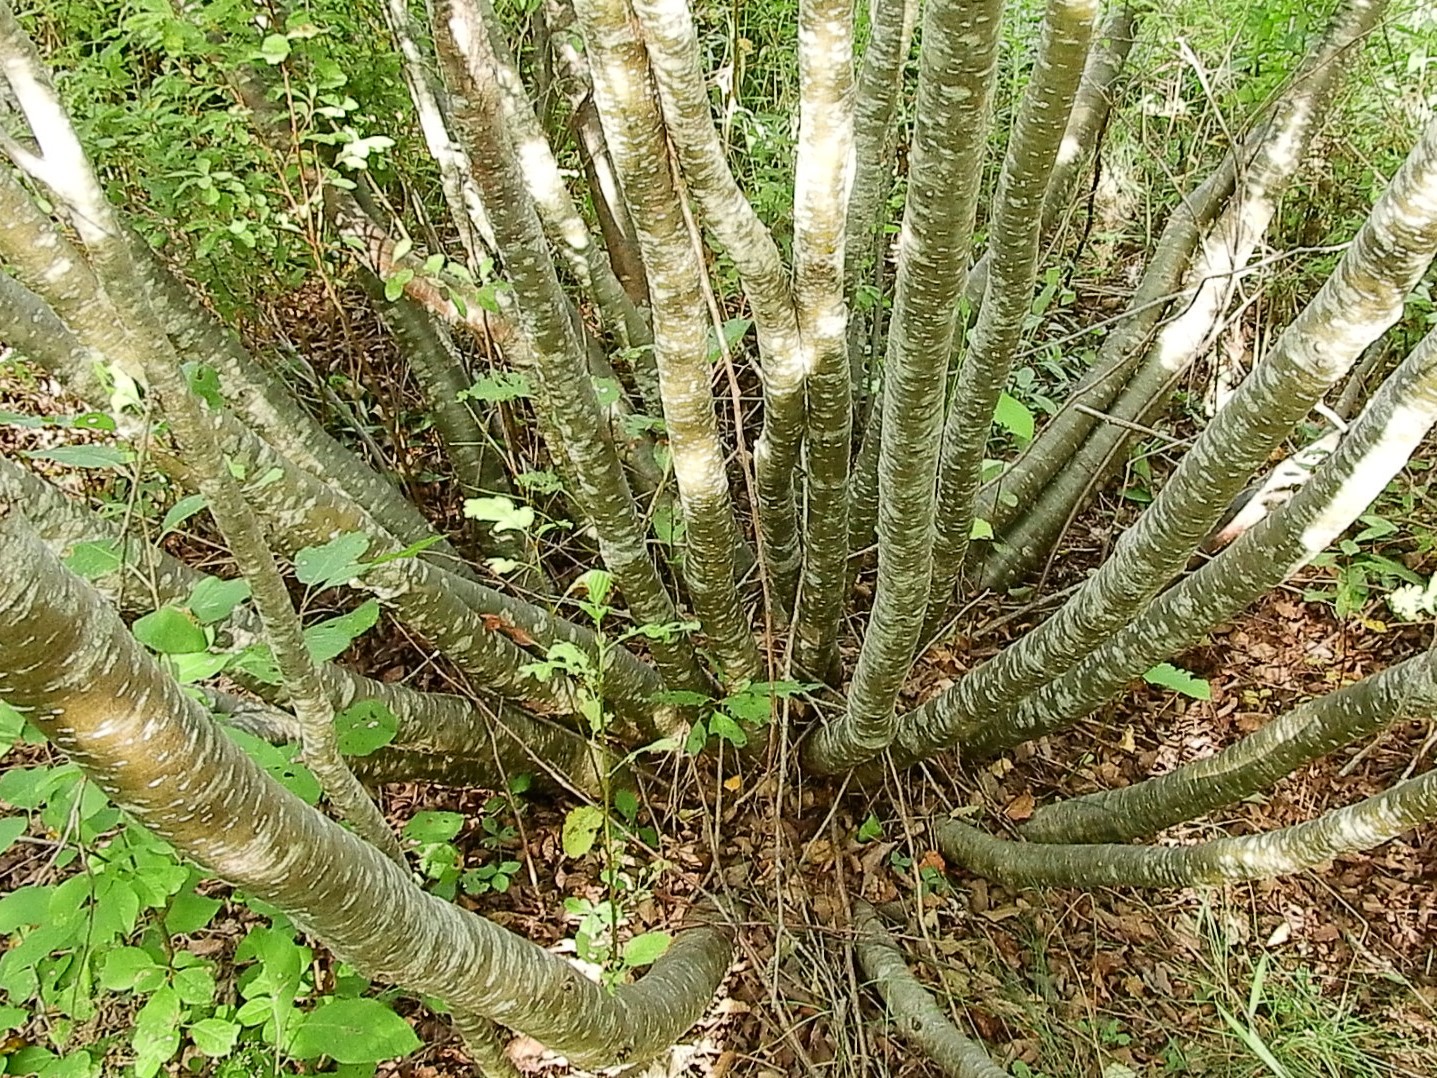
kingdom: Plantae
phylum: Tracheophyta
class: Magnoliopsida
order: Fagales
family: Betulaceae
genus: Alnus
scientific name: Alnus incana
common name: Grey alder
